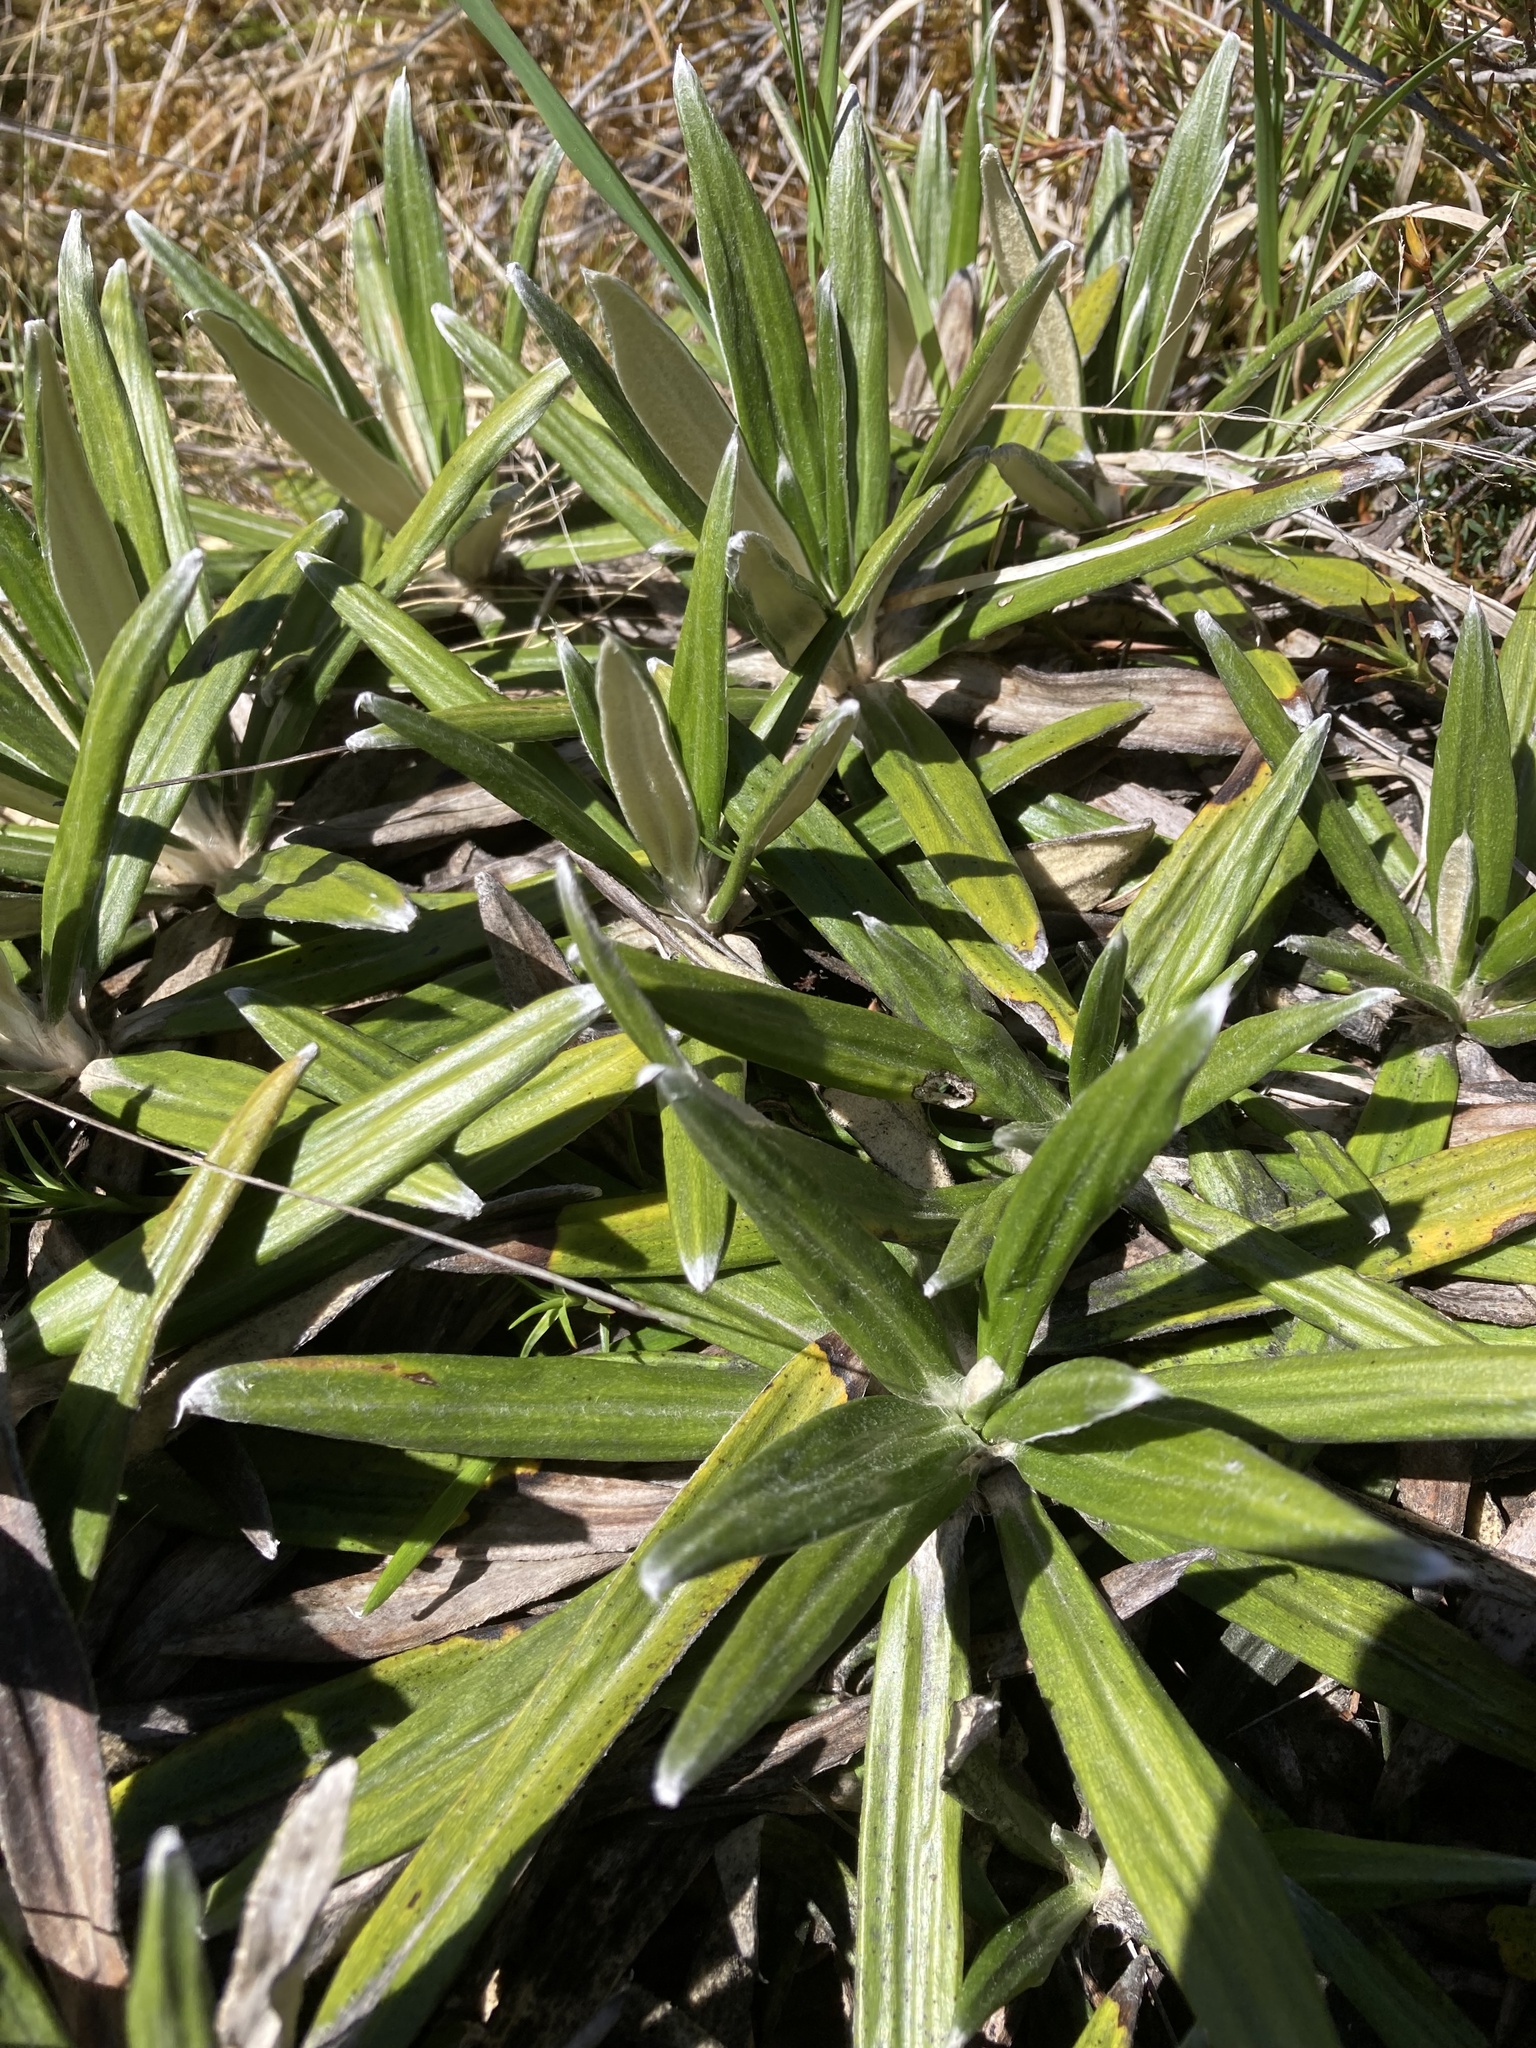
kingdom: Plantae
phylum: Tracheophyta
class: Magnoliopsida
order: Asterales
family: Asteraceae
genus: Celmisia
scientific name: Celmisia spectabilis
